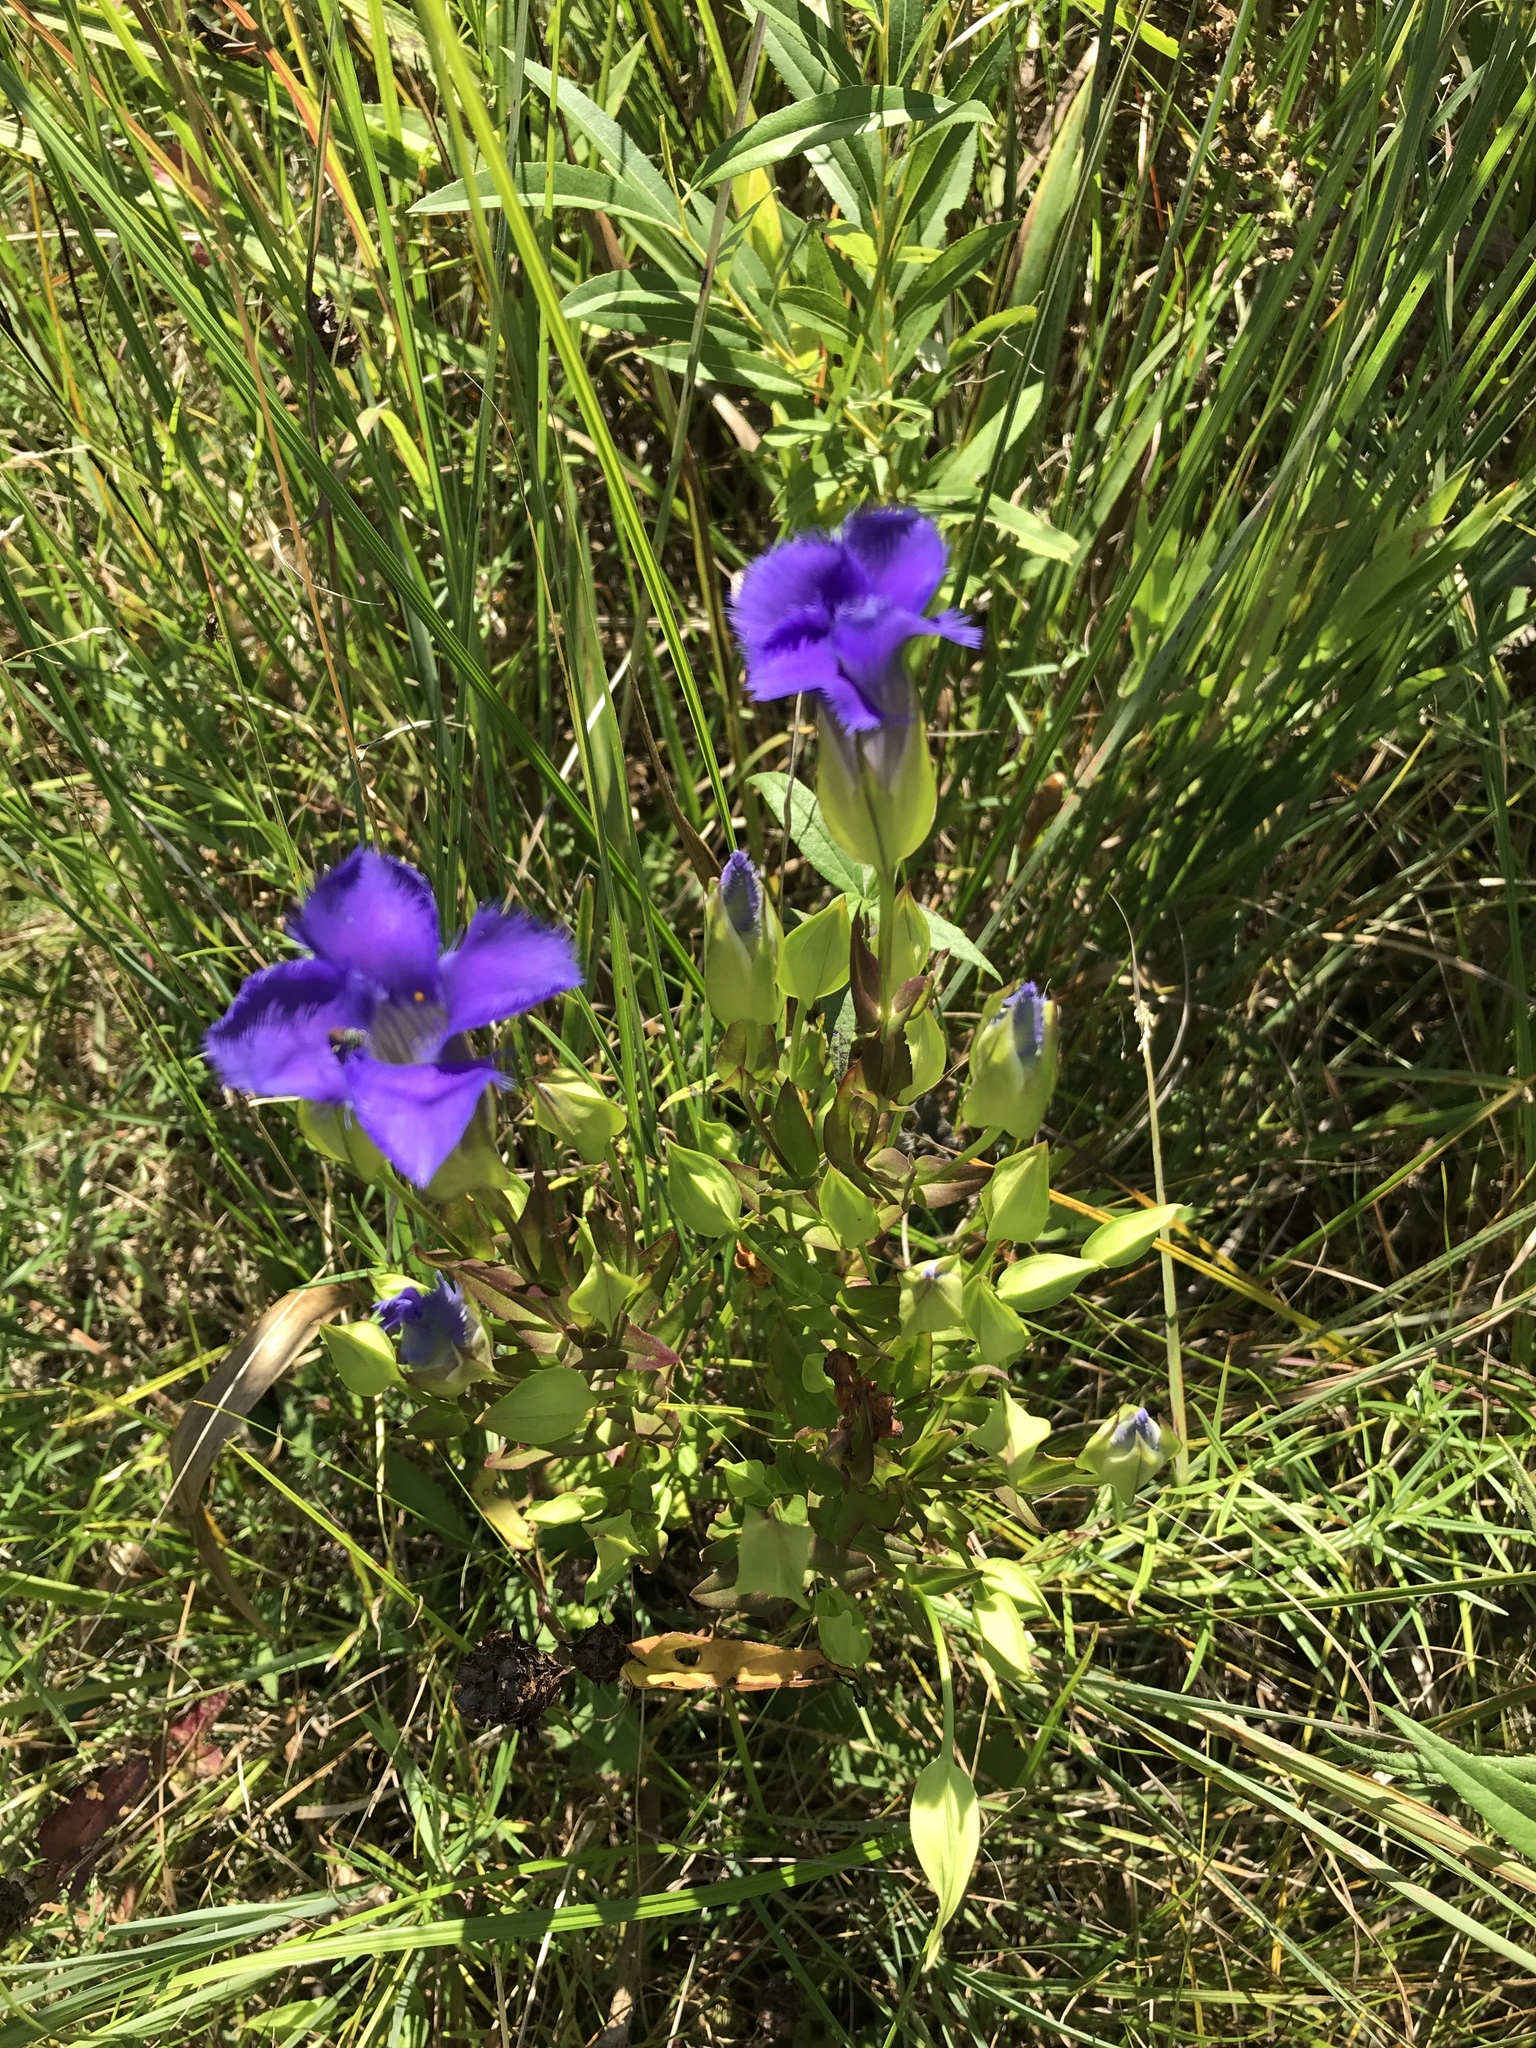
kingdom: Plantae
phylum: Tracheophyta
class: Magnoliopsida
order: Gentianales
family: Gentianaceae
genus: Gentianopsis
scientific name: Gentianopsis crinita
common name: Fringed-gentian
